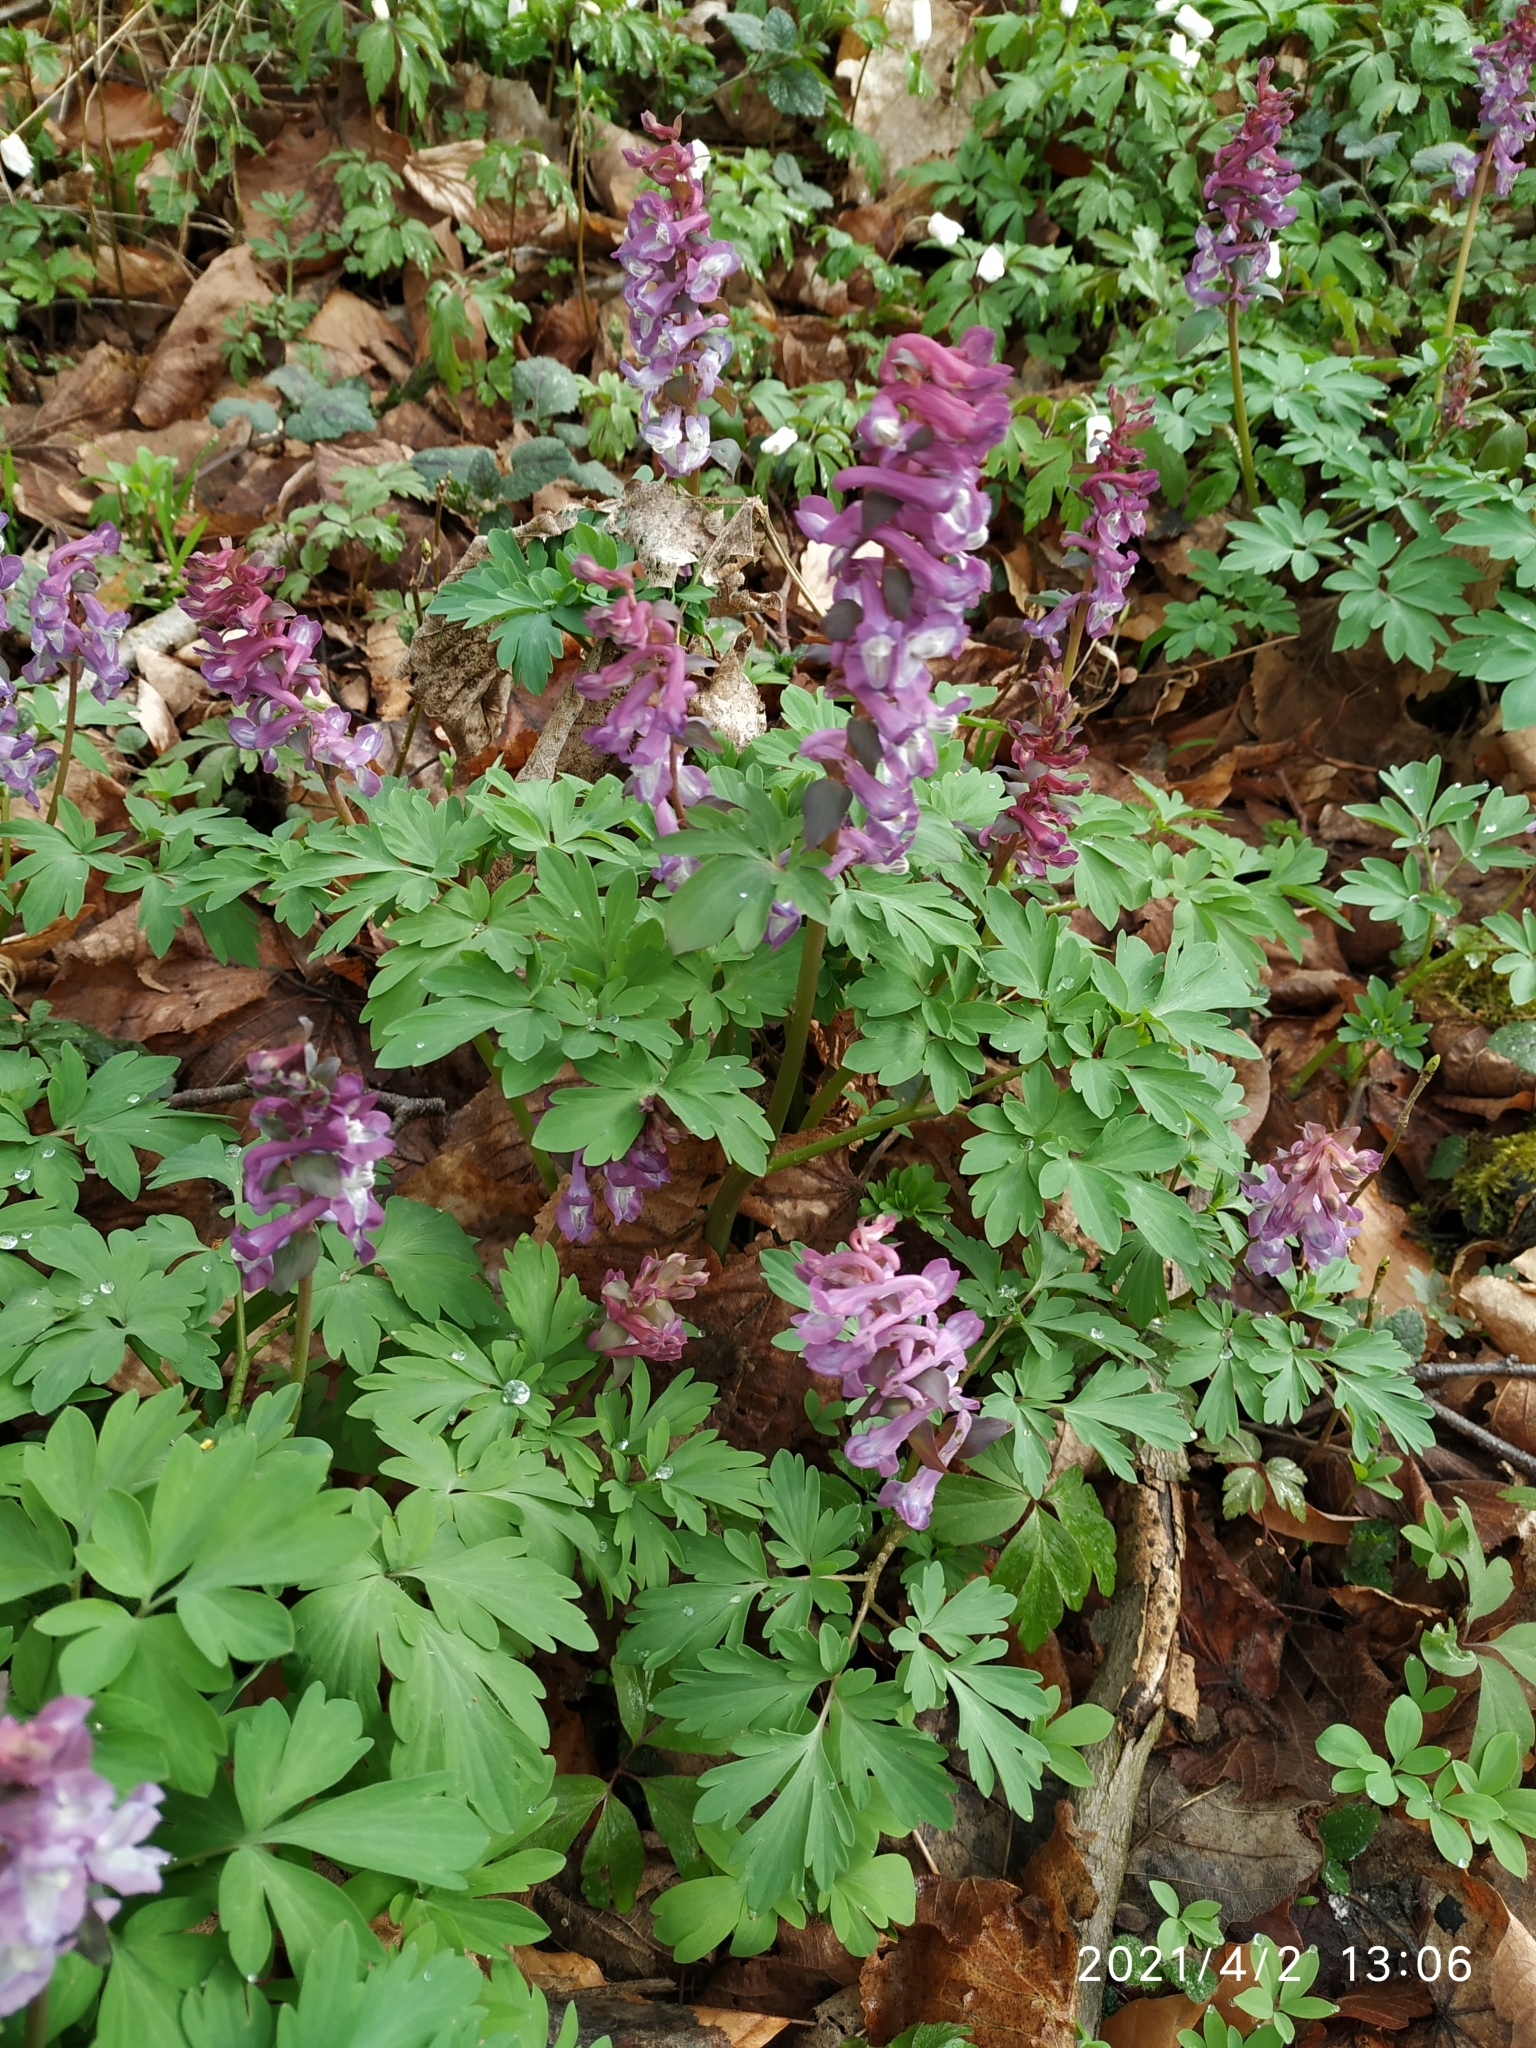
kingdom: Plantae
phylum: Tracheophyta
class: Magnoliopsida
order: Ranunculales
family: Papaveraceae
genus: Corydalis
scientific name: Corydalis cava
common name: Hollowroot
